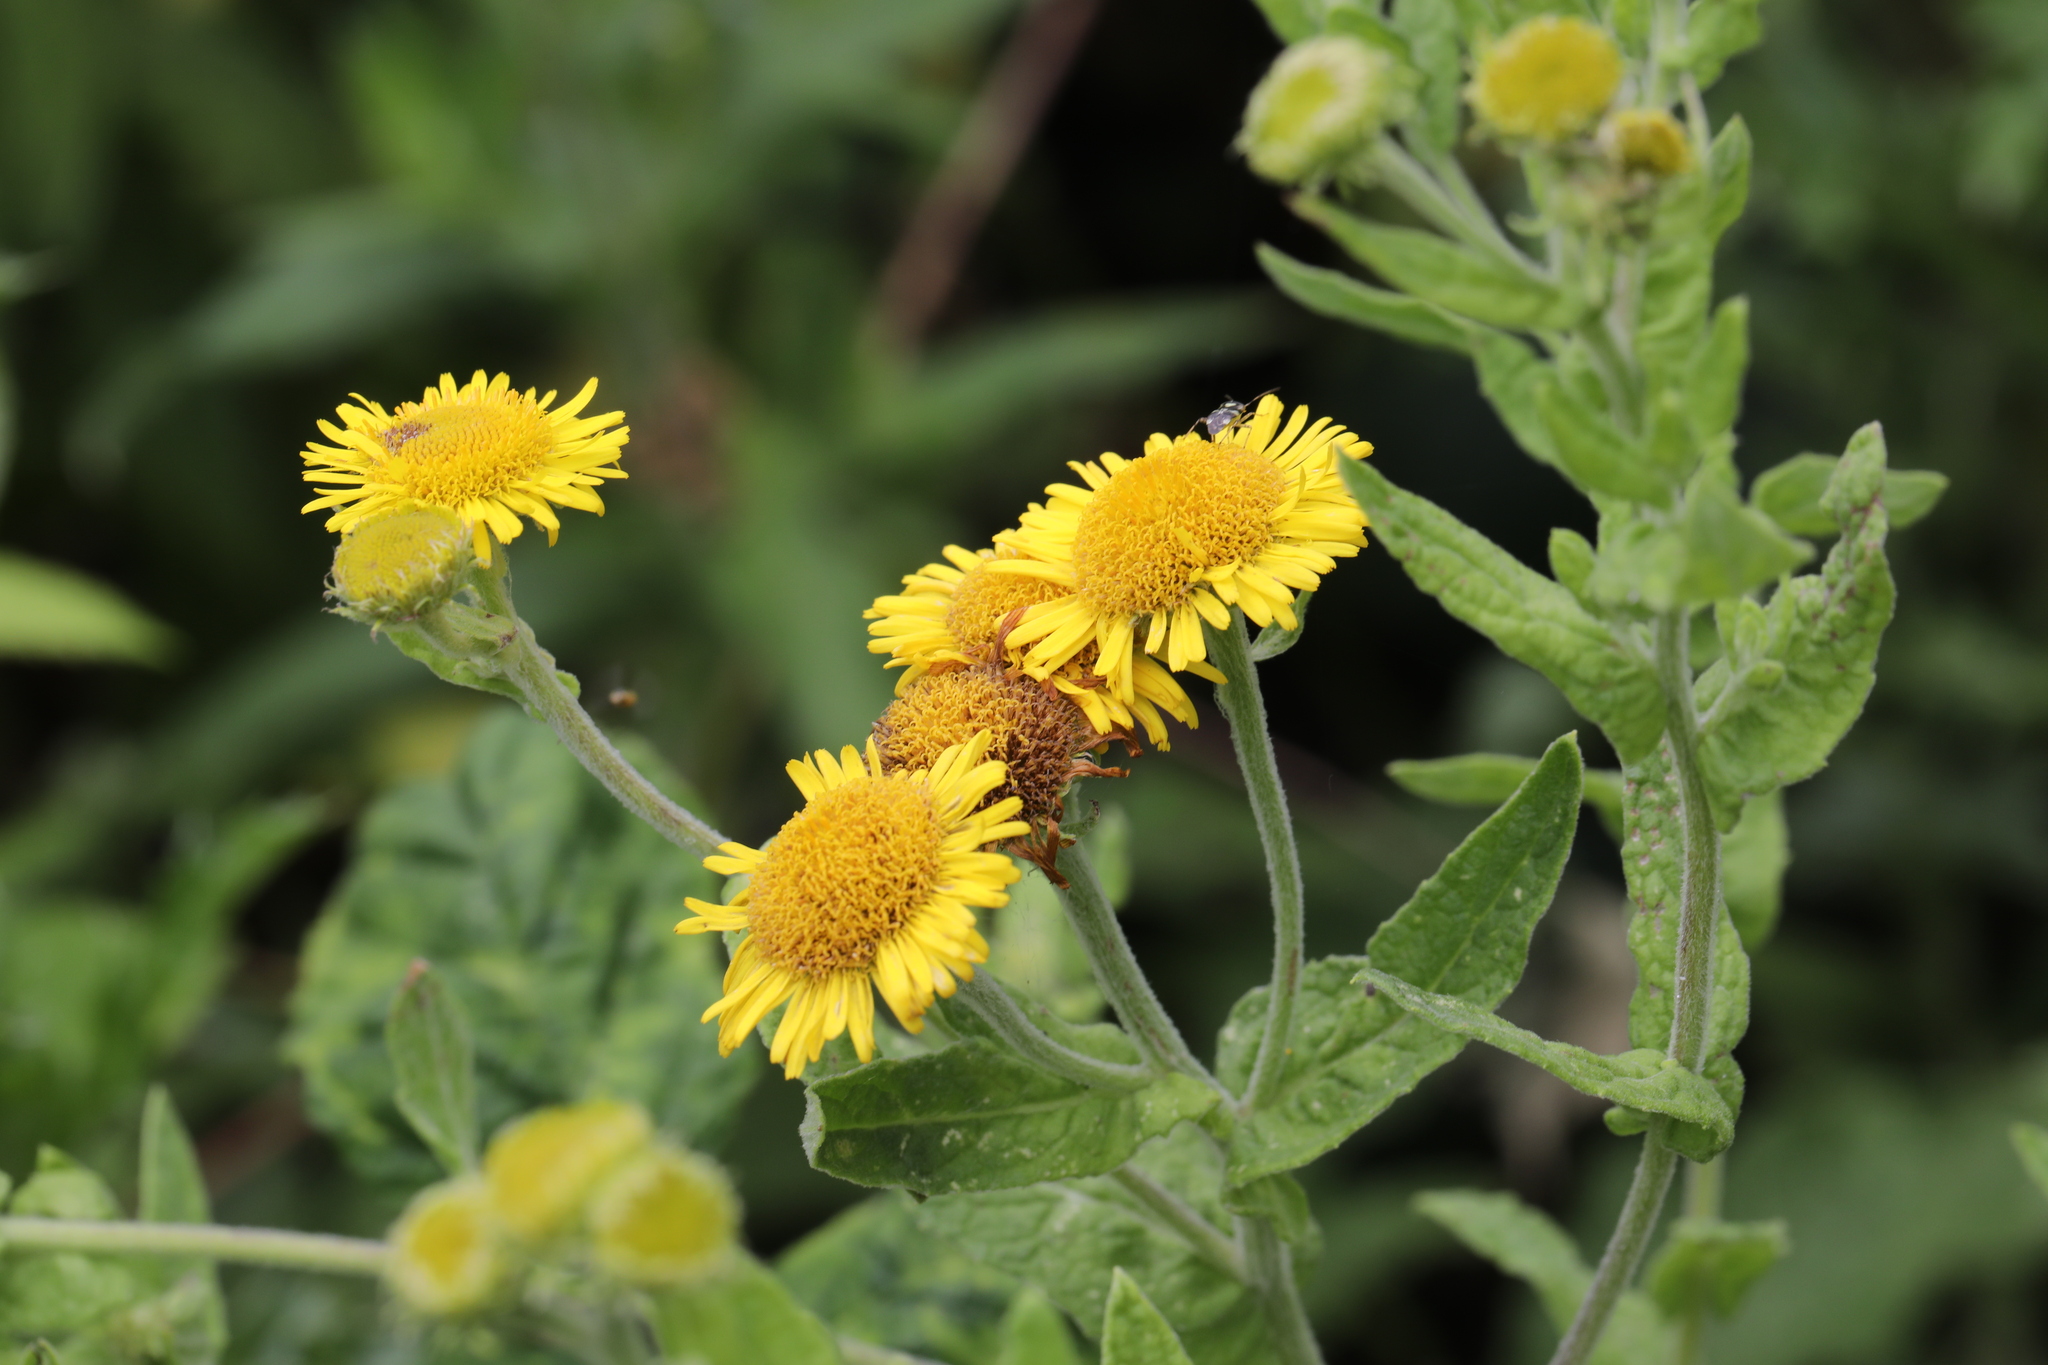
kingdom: Plantae
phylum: Tracheophyta
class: Magnoliopsida
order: Asterales
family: Asteraceae
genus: Pulicaria
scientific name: Pulicaria dysenterica
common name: Common fleabane
